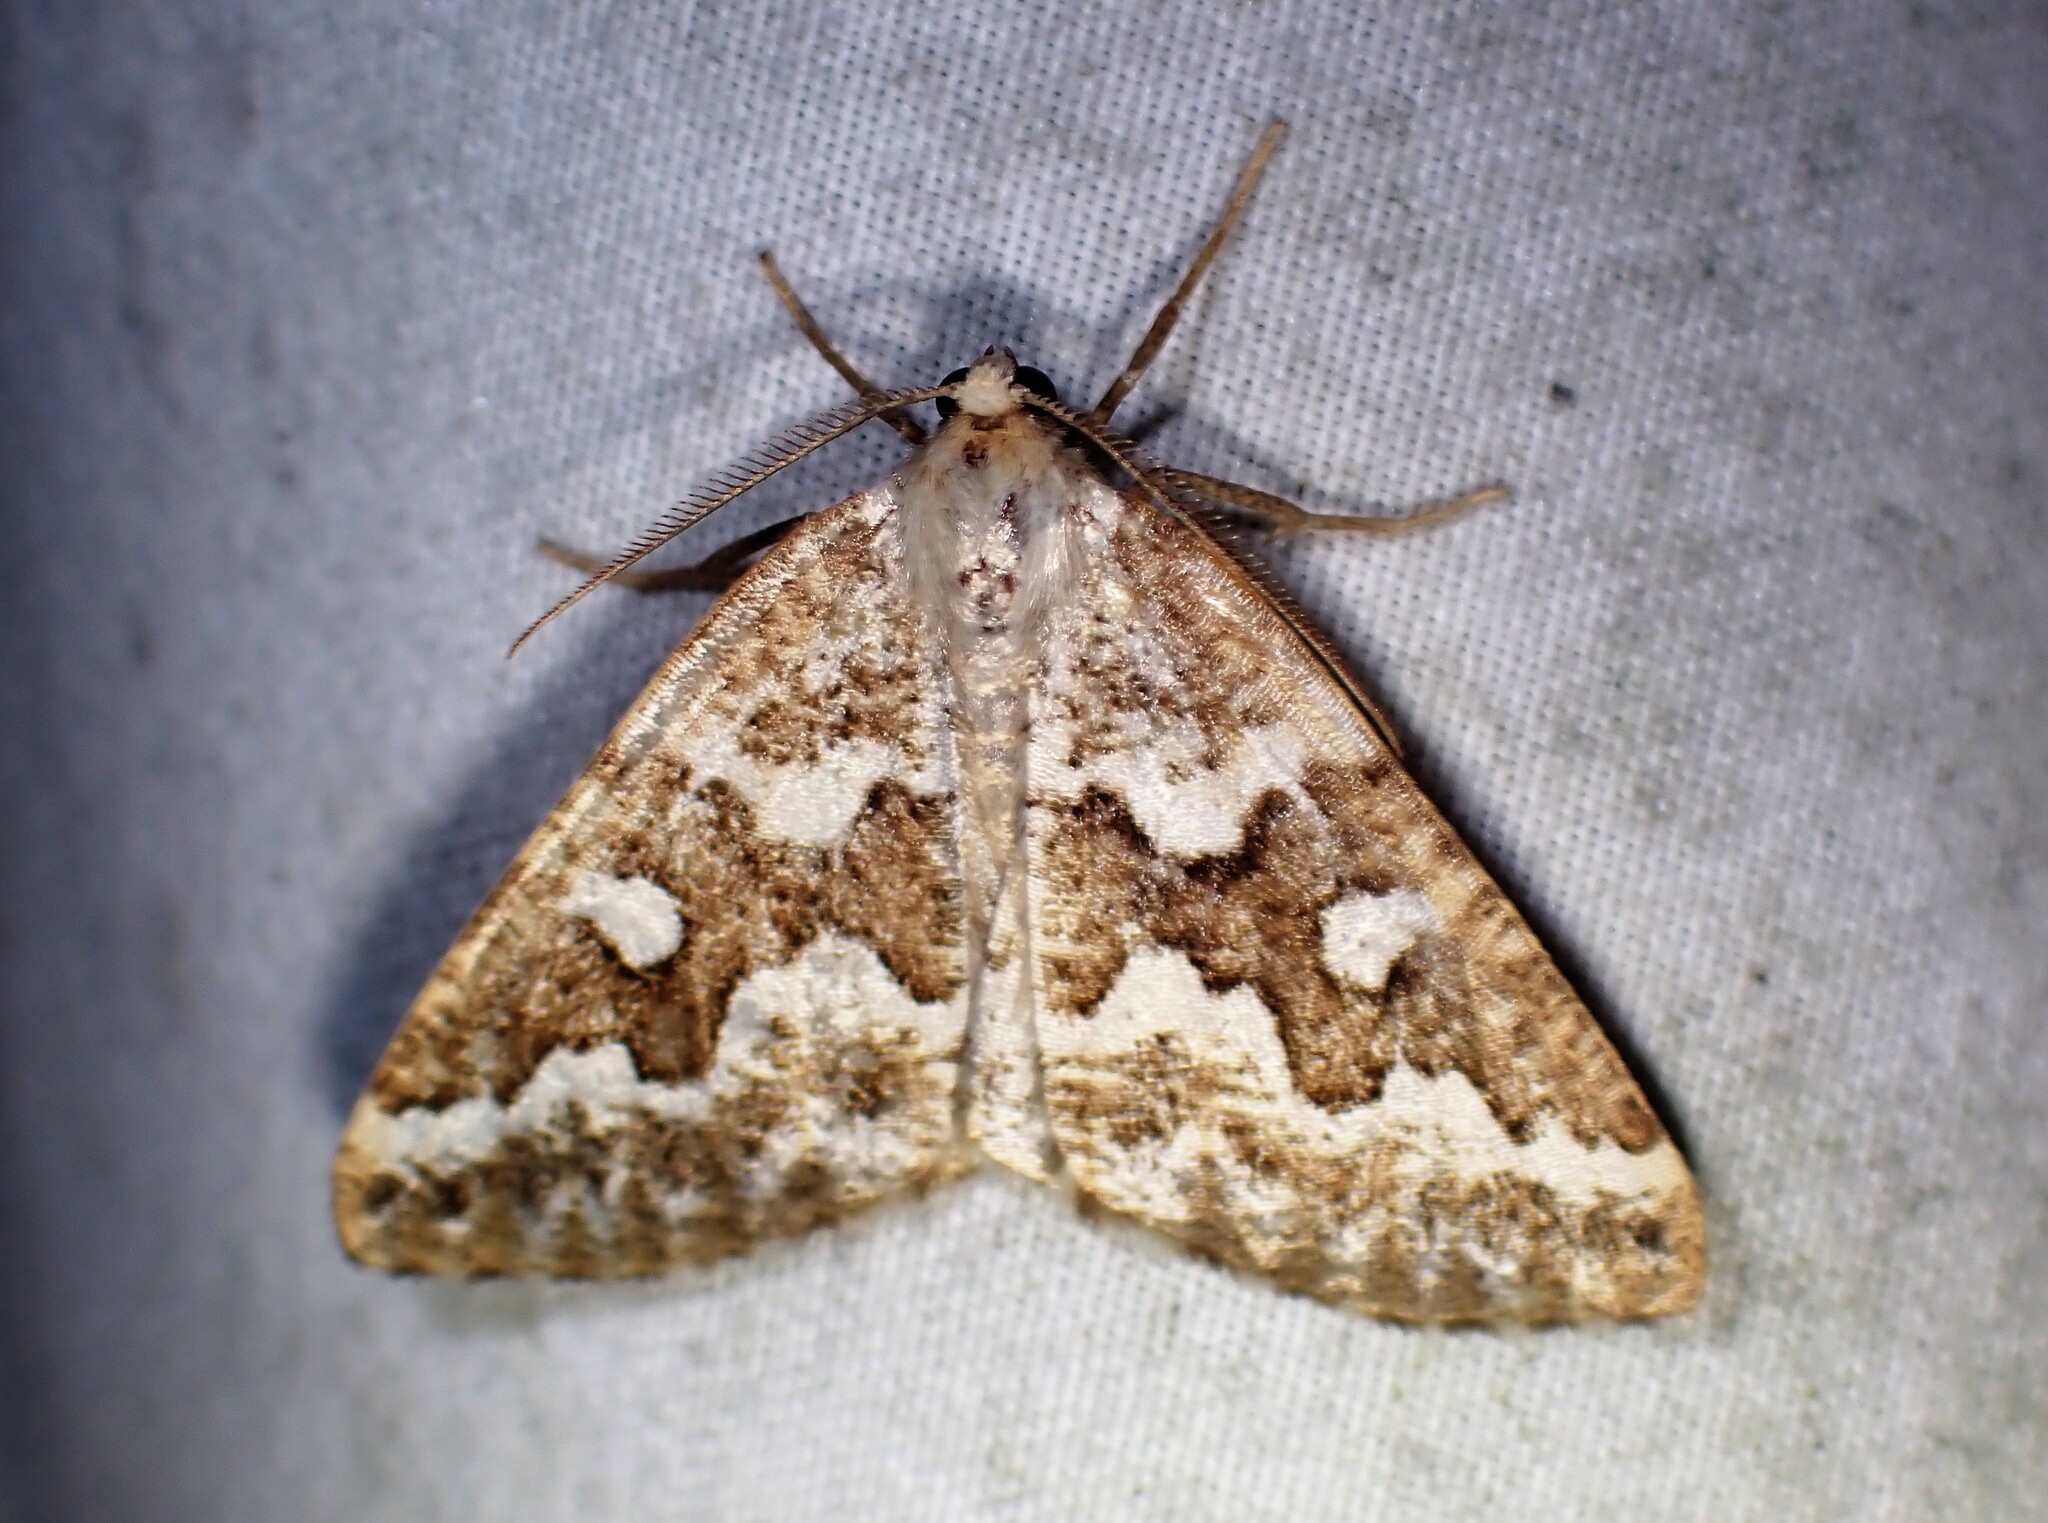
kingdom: Animalia
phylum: Arthropoda
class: Insecta
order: Lepidoptera
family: Geometridae
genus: Caripeta
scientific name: Caripeta divisata
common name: Gray spruce looper
